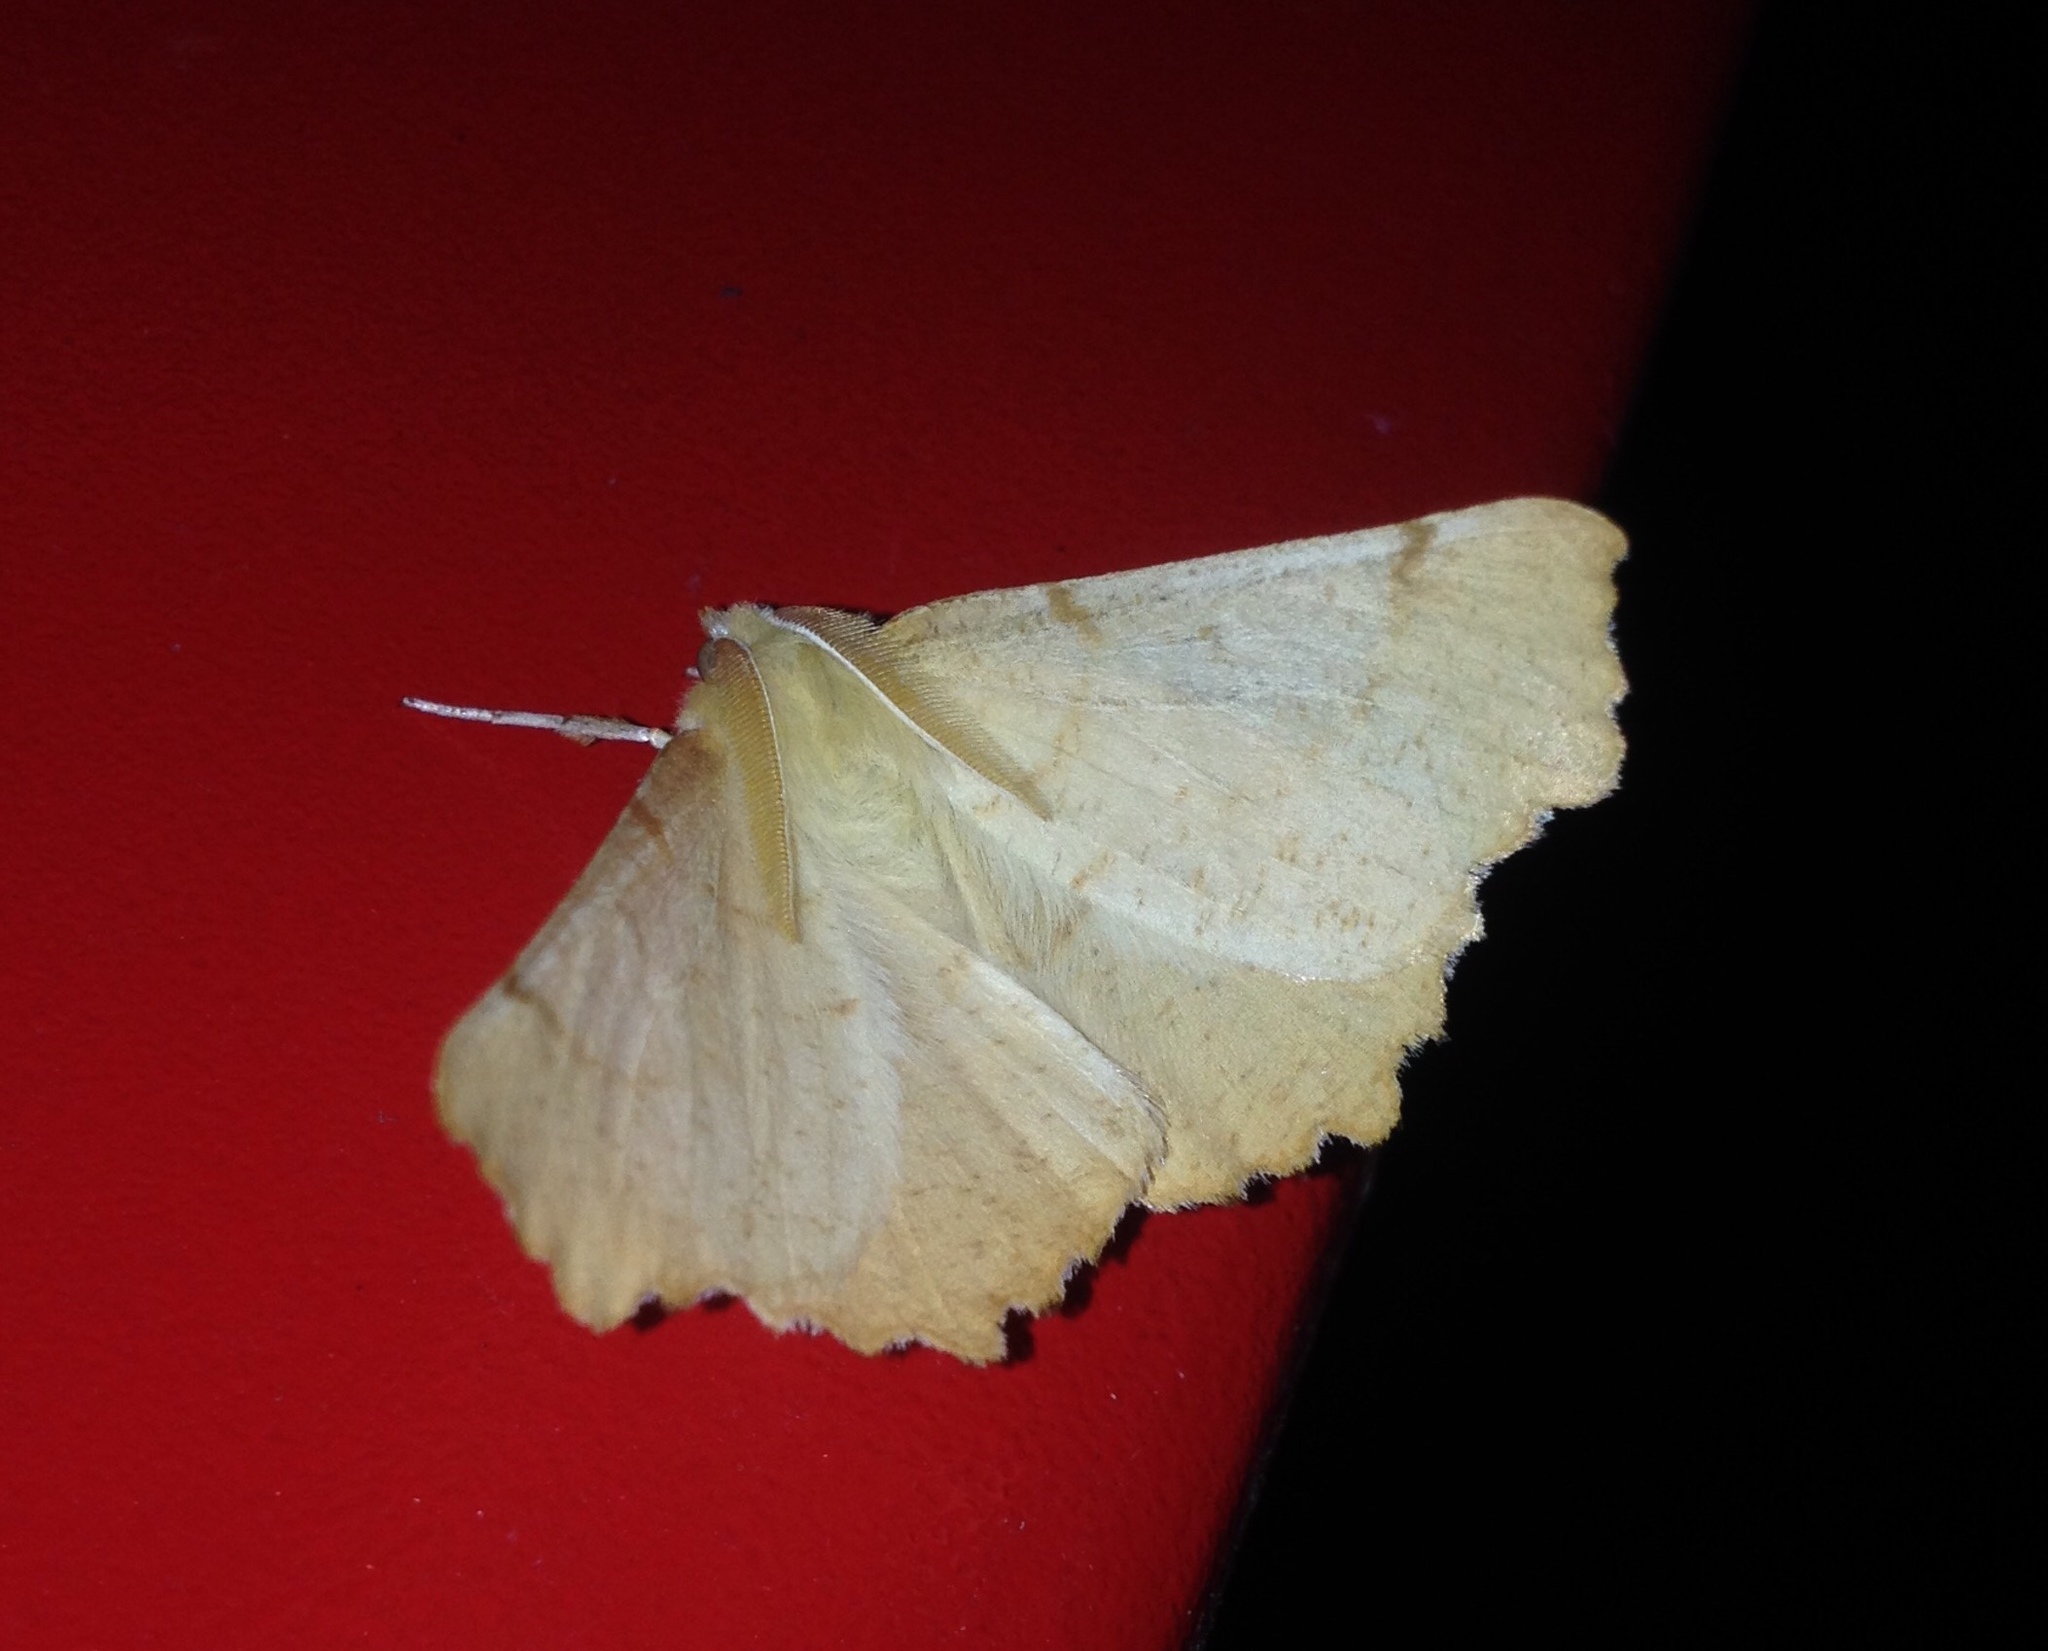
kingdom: Animalia
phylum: Arthropoda
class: Insecta
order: Lepidoptera
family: Geometridae
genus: Ennomos
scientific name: Ennomos autumnaria
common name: Large thorn
